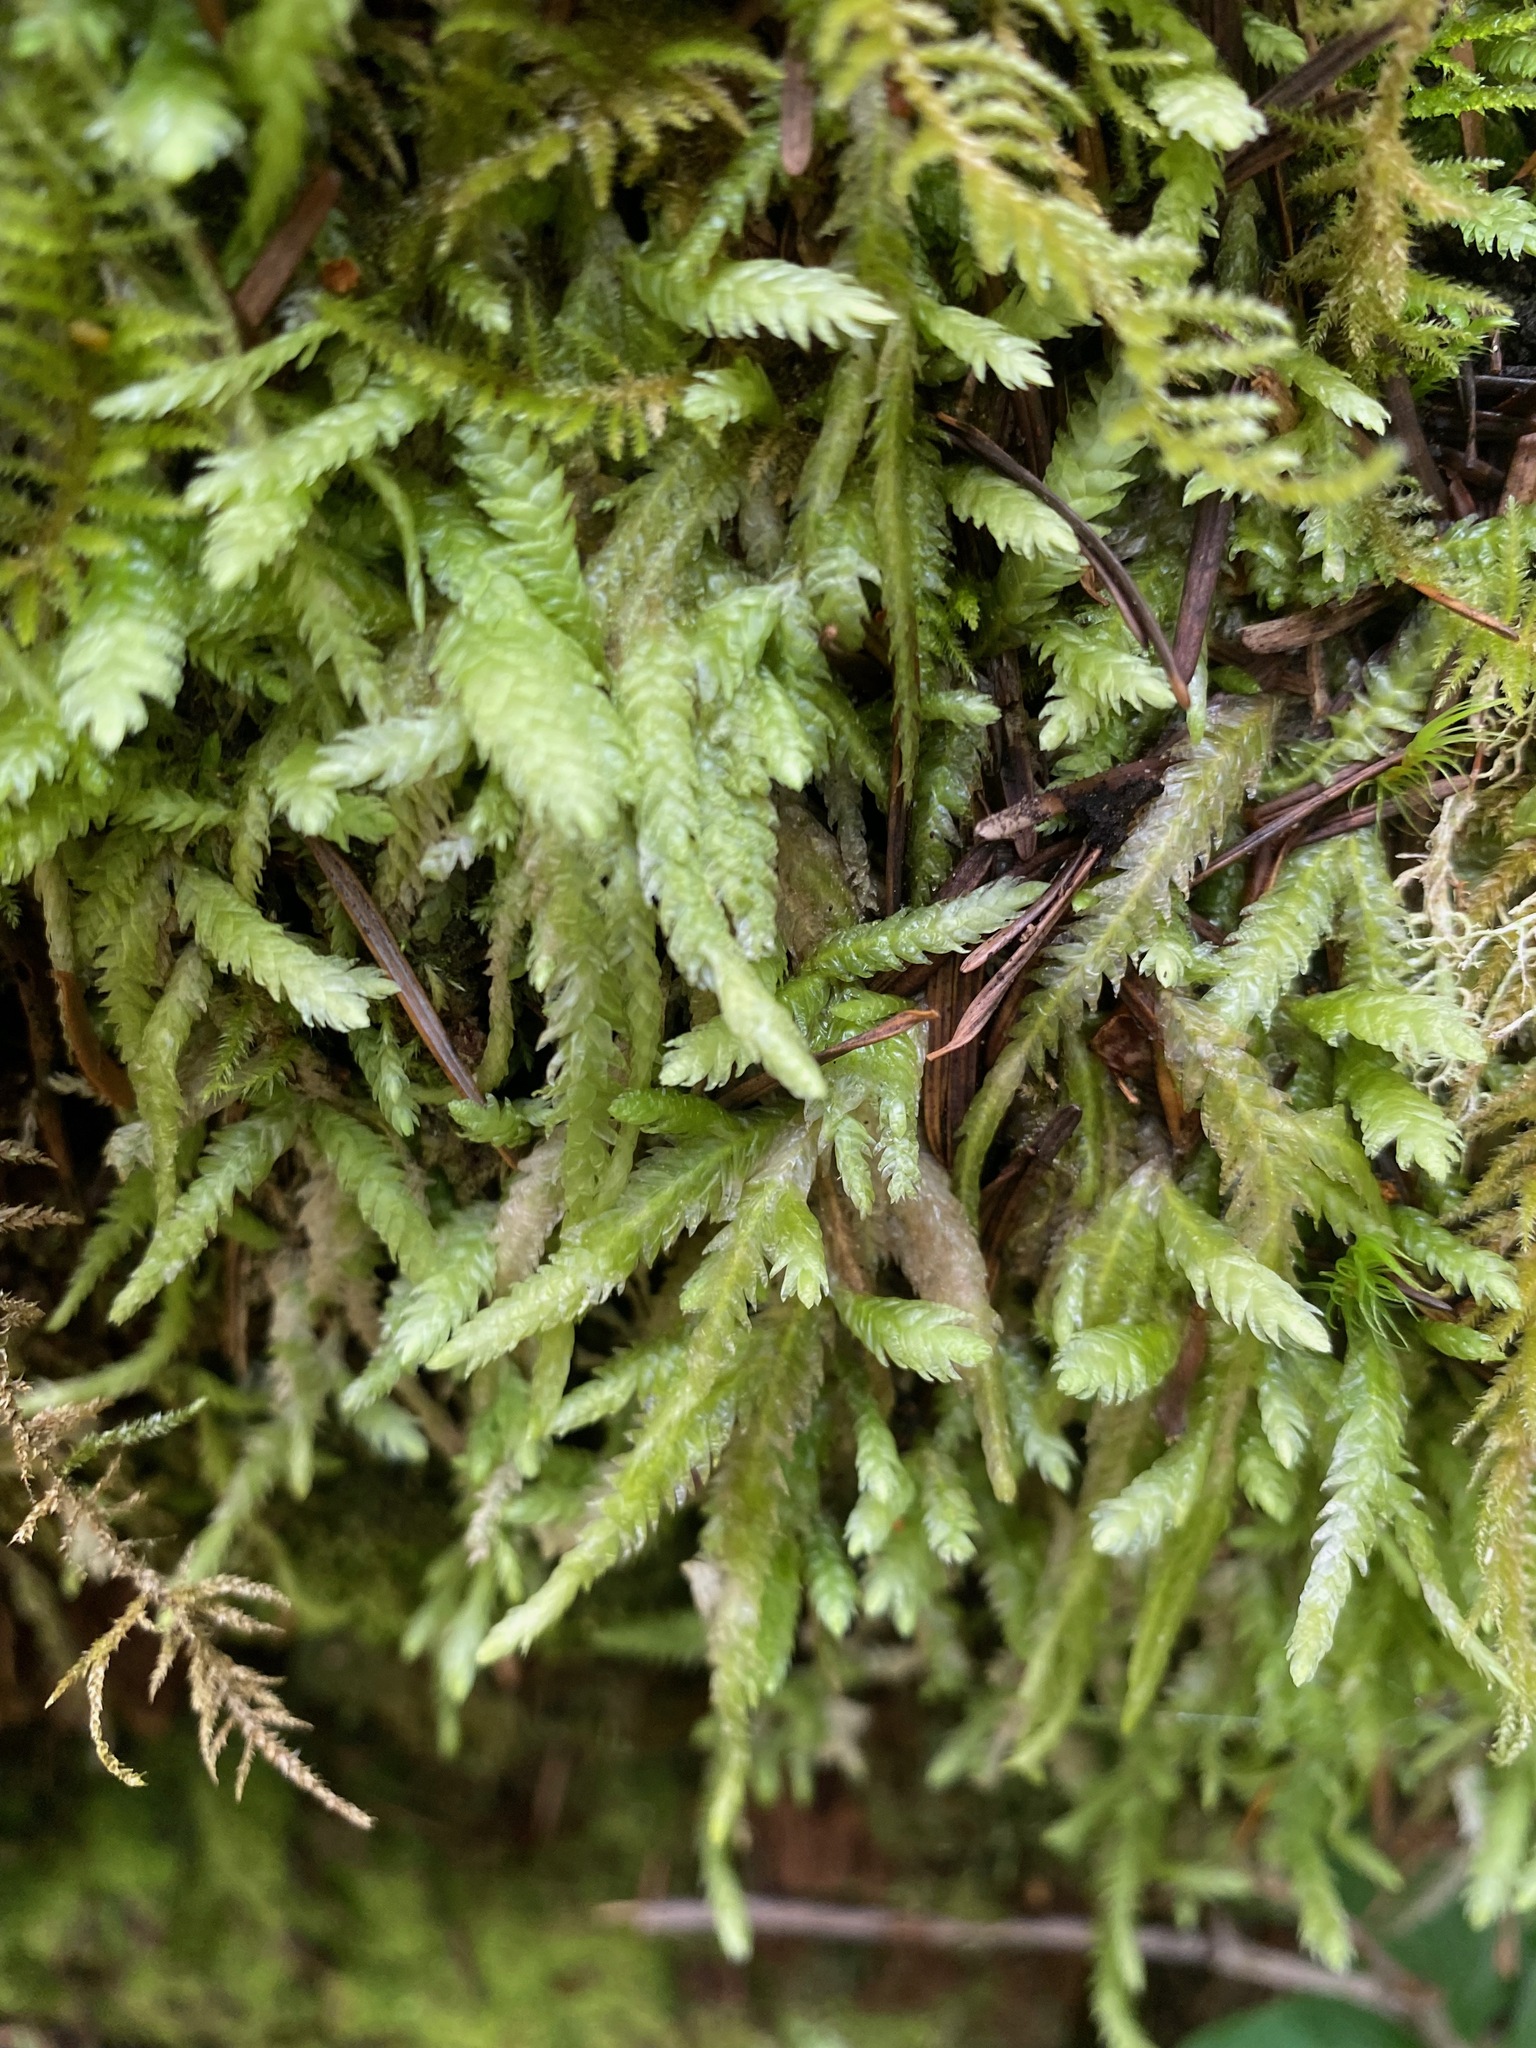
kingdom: Plantae
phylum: Bryophyta
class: Bryopsida
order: Hypnales
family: Plagiotheciaceae
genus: Plagiothecium
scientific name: Plagiothecium undulatum
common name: Waved silk-moss
